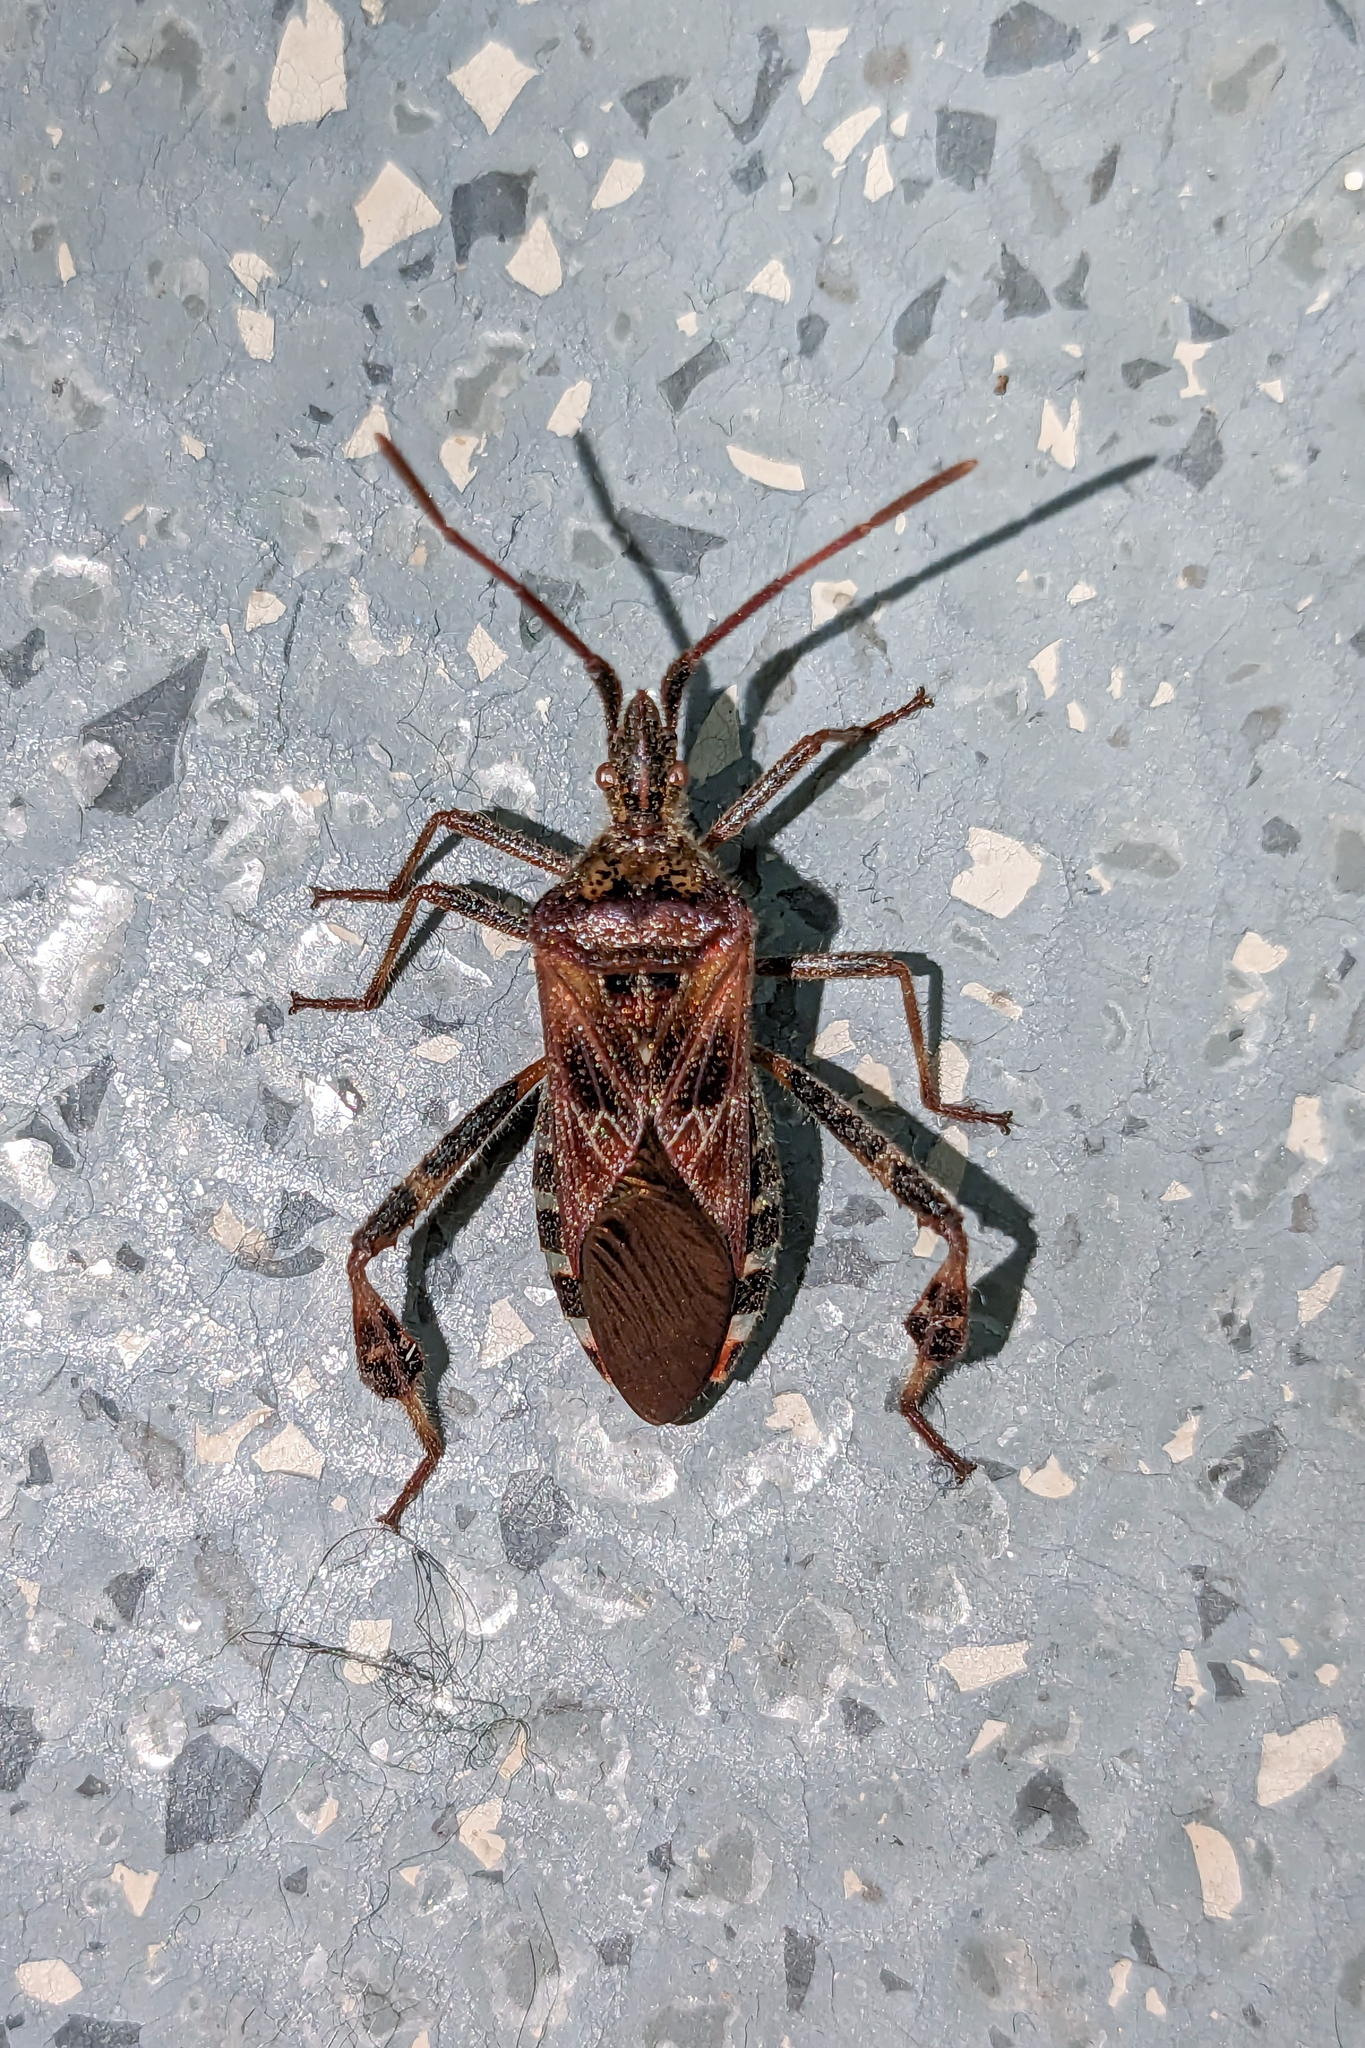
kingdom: Animalia
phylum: Arthropoda
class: Insecta
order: Hemiptera
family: Coreidae
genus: Leptoglossus
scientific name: Leptoglossus occidentalis
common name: Western conifer-seed bug
